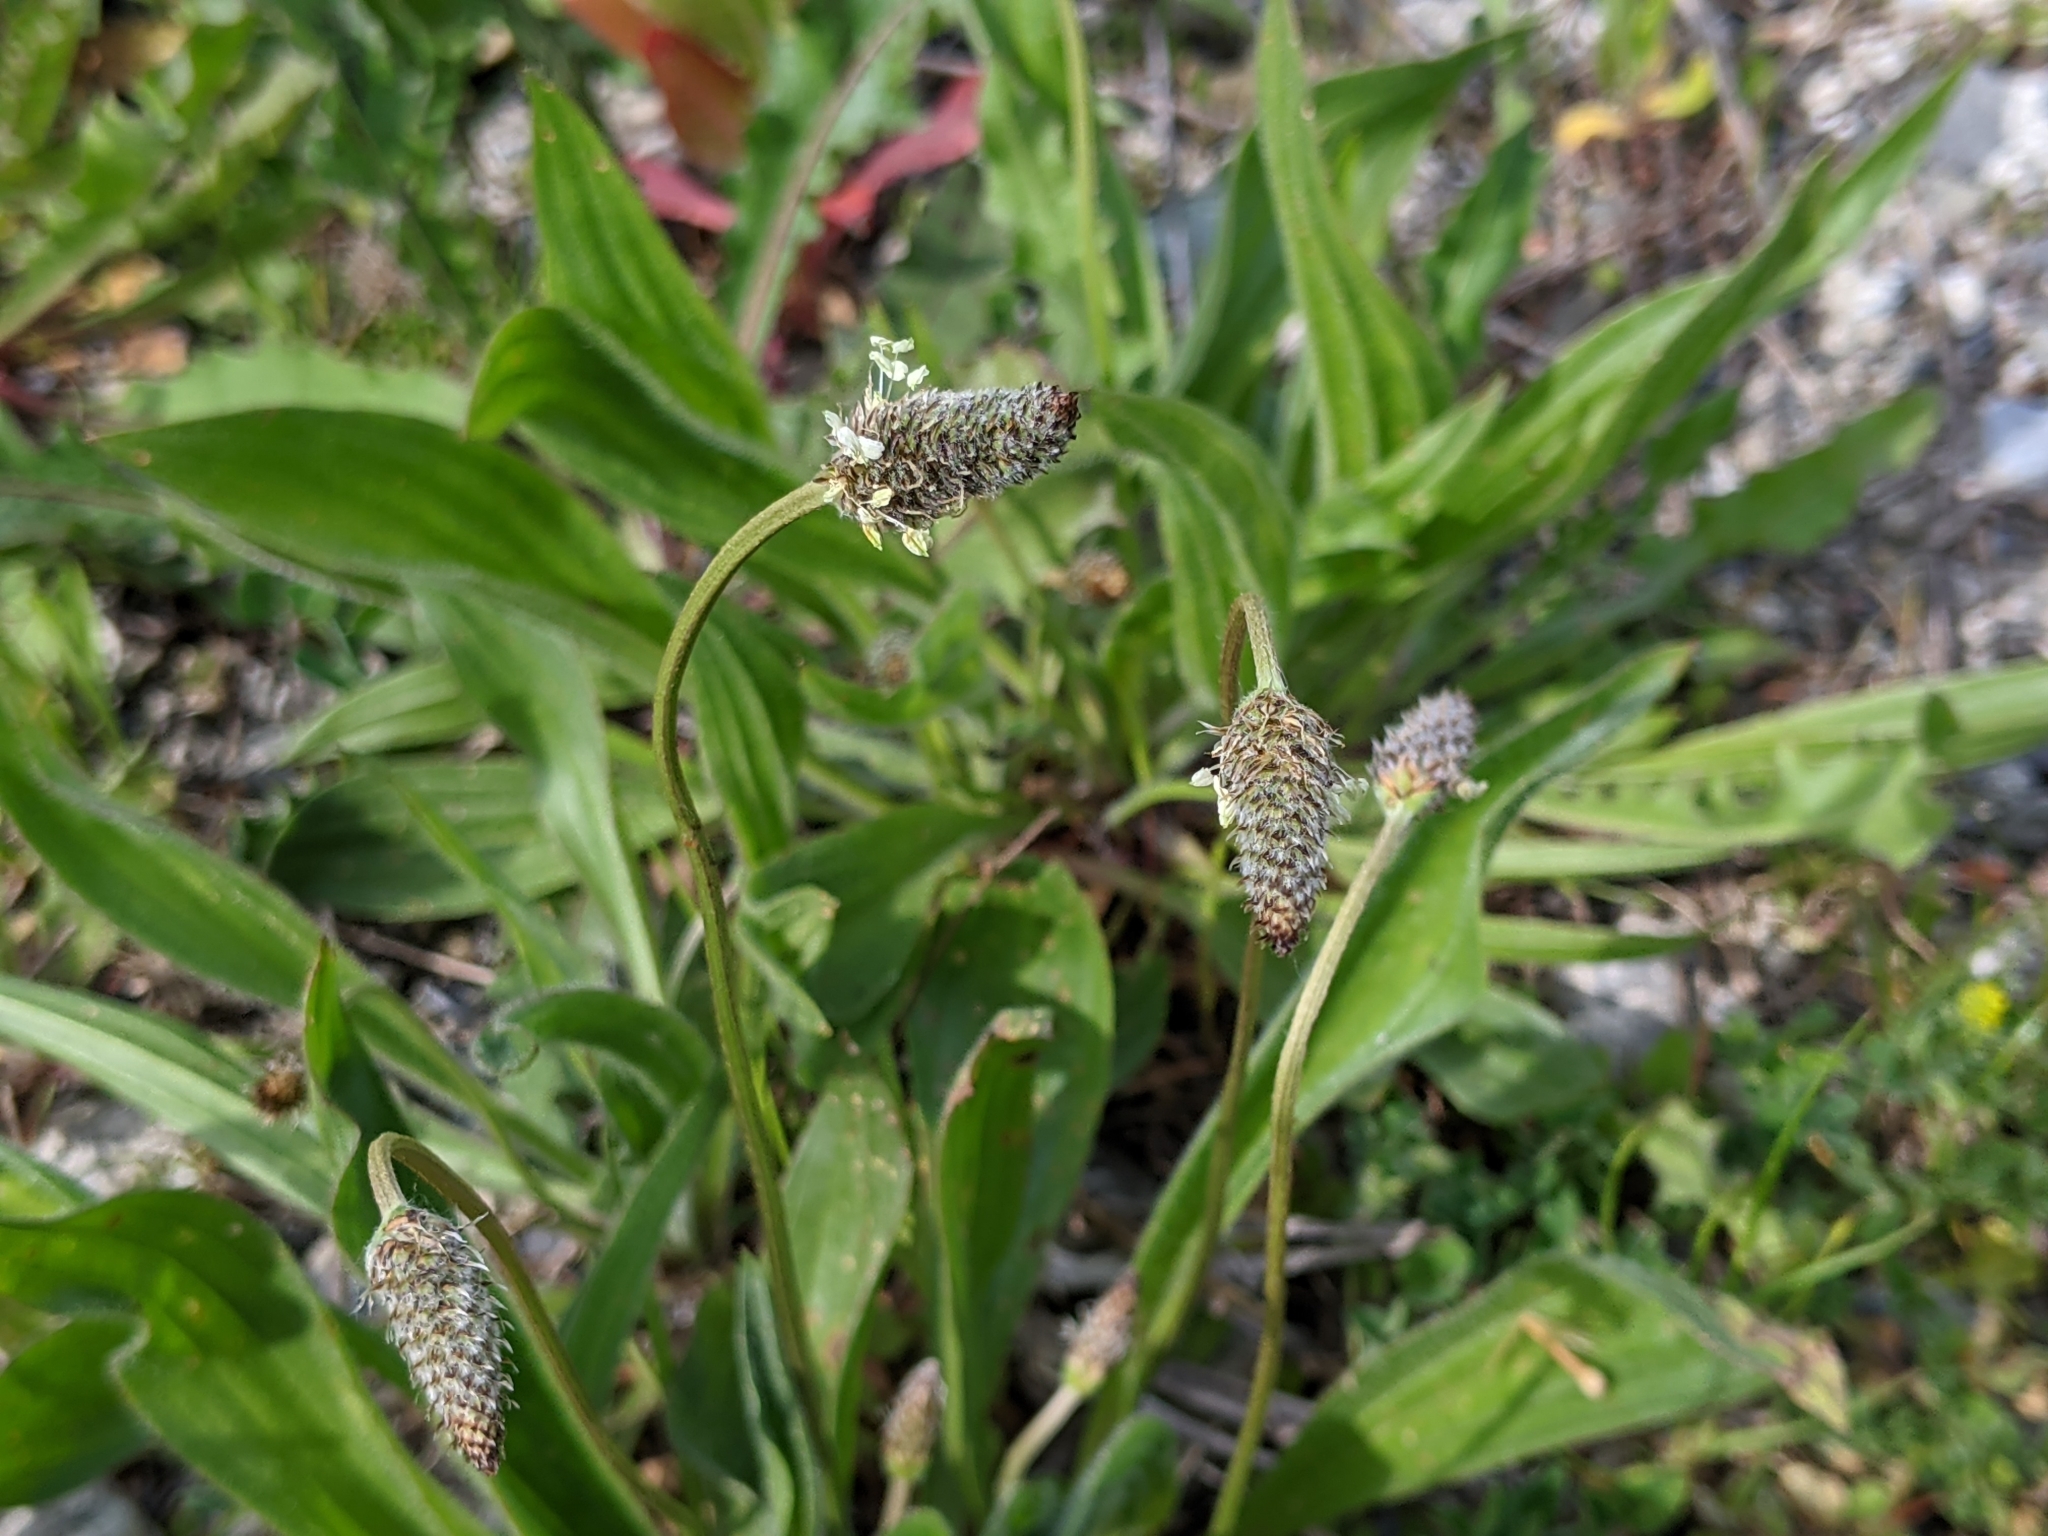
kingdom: Plantae
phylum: Tracheophyta
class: Magnoliopsida
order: Lamiales
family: Plantaginaceae
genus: Plantago
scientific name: Plantago lanceolata
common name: Ribwort plantain
